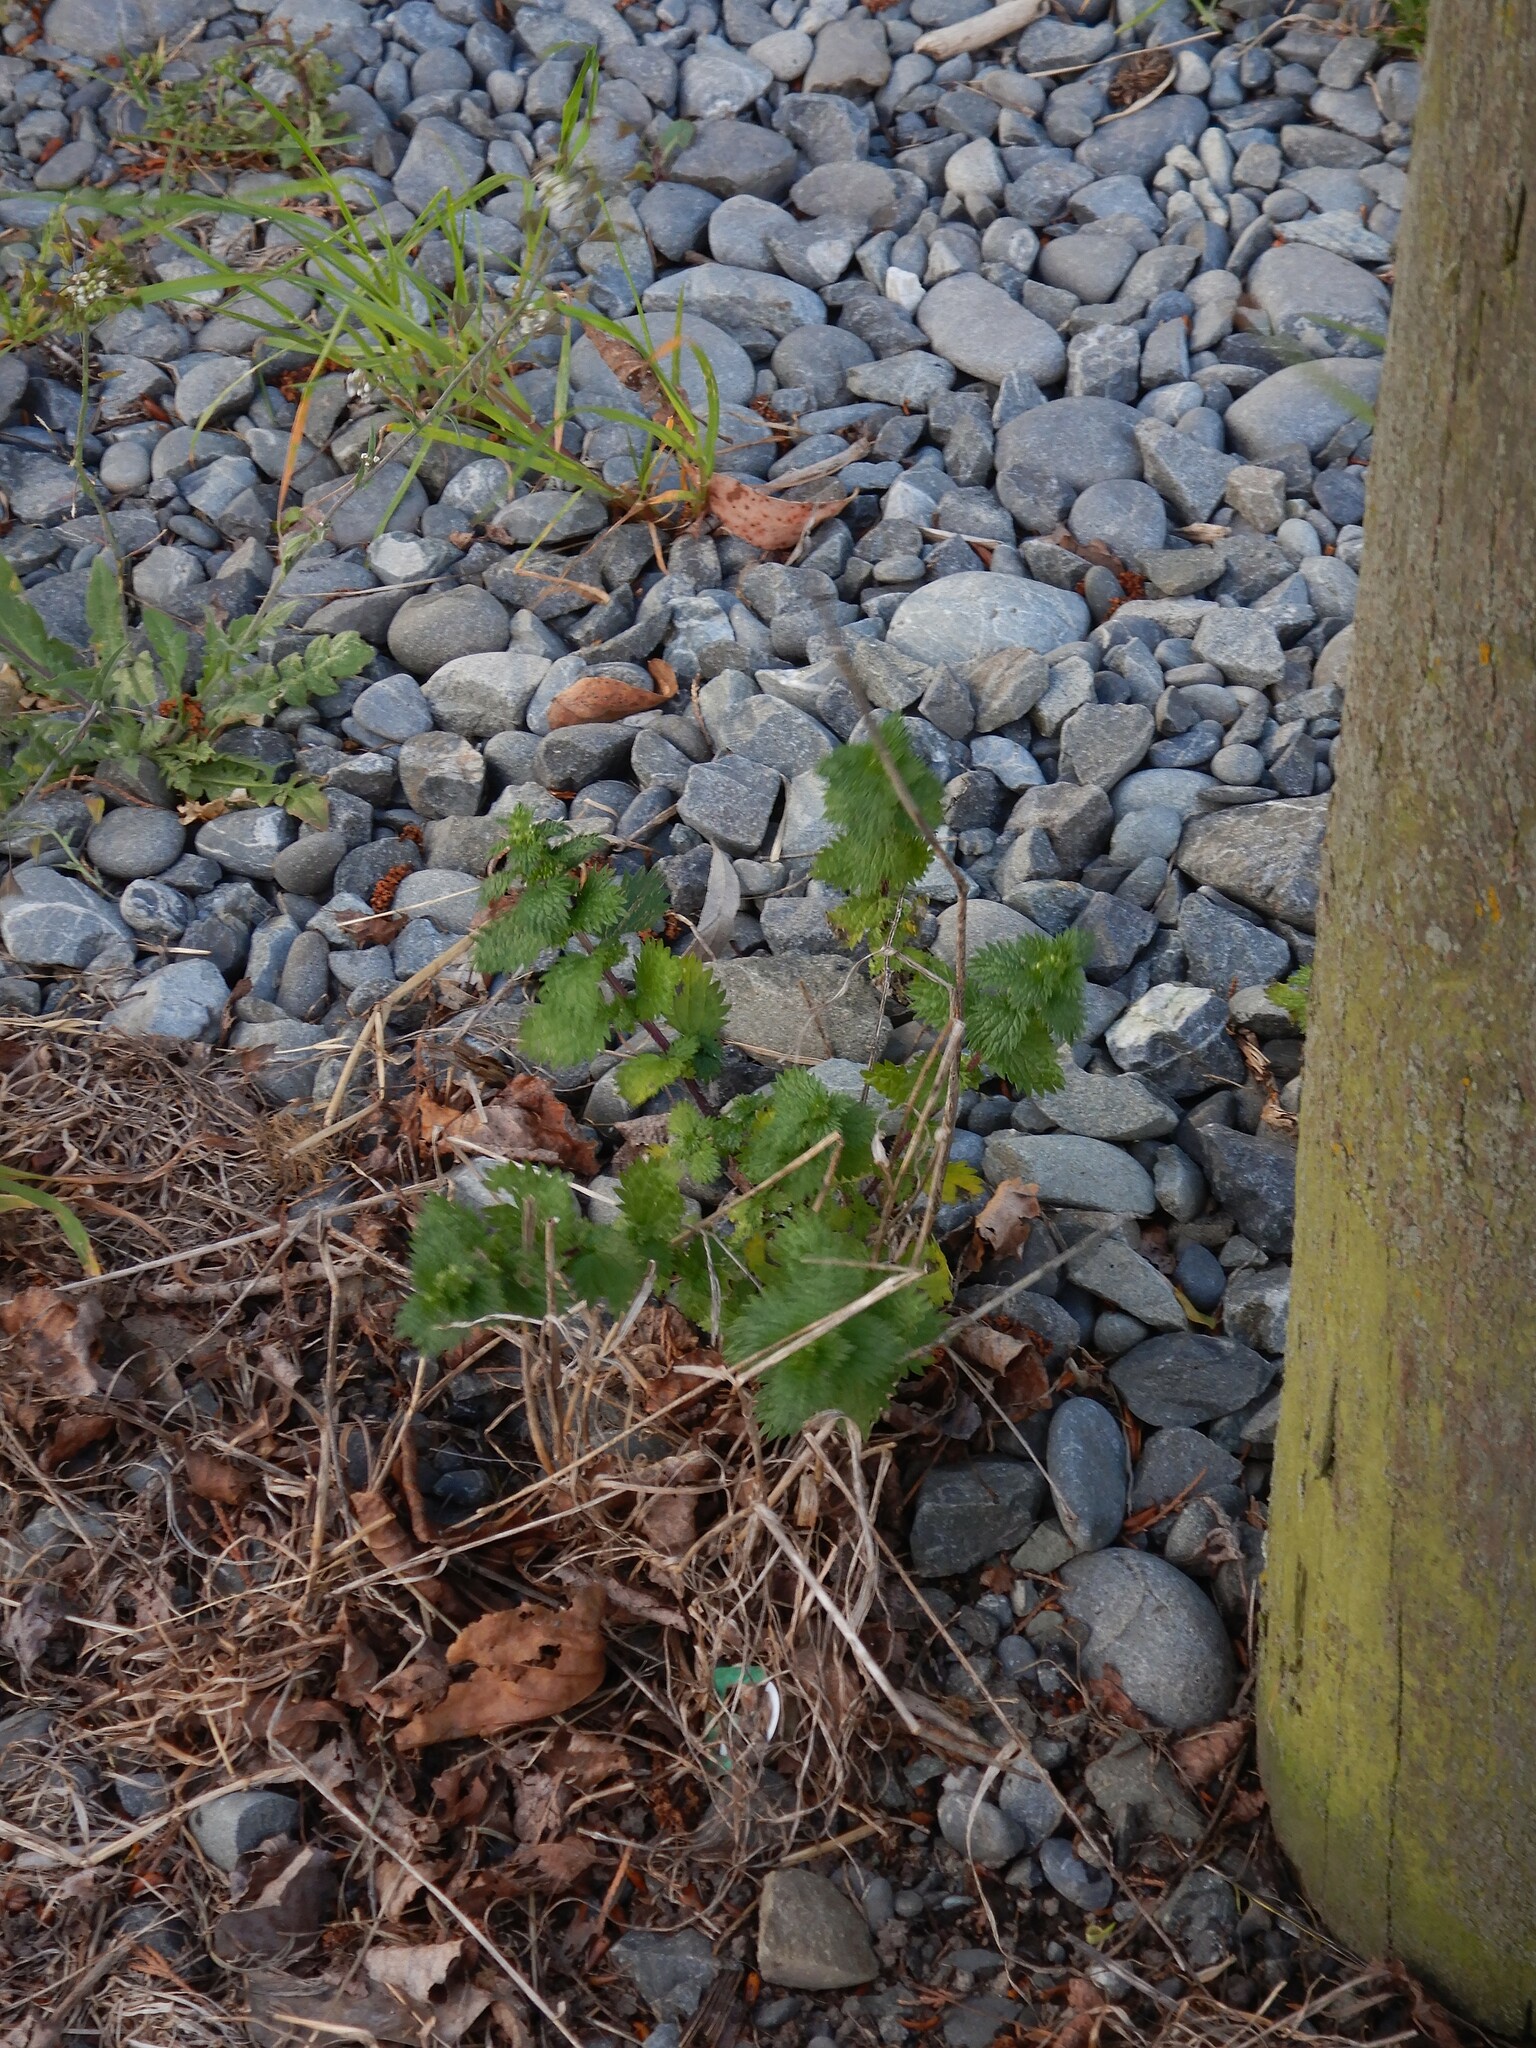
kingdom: Plantae
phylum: Tracheophyta
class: Magnoliopsida
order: Rosales
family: Urticaceae
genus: Urtica
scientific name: Urtica urens
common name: Dwarf nettle
